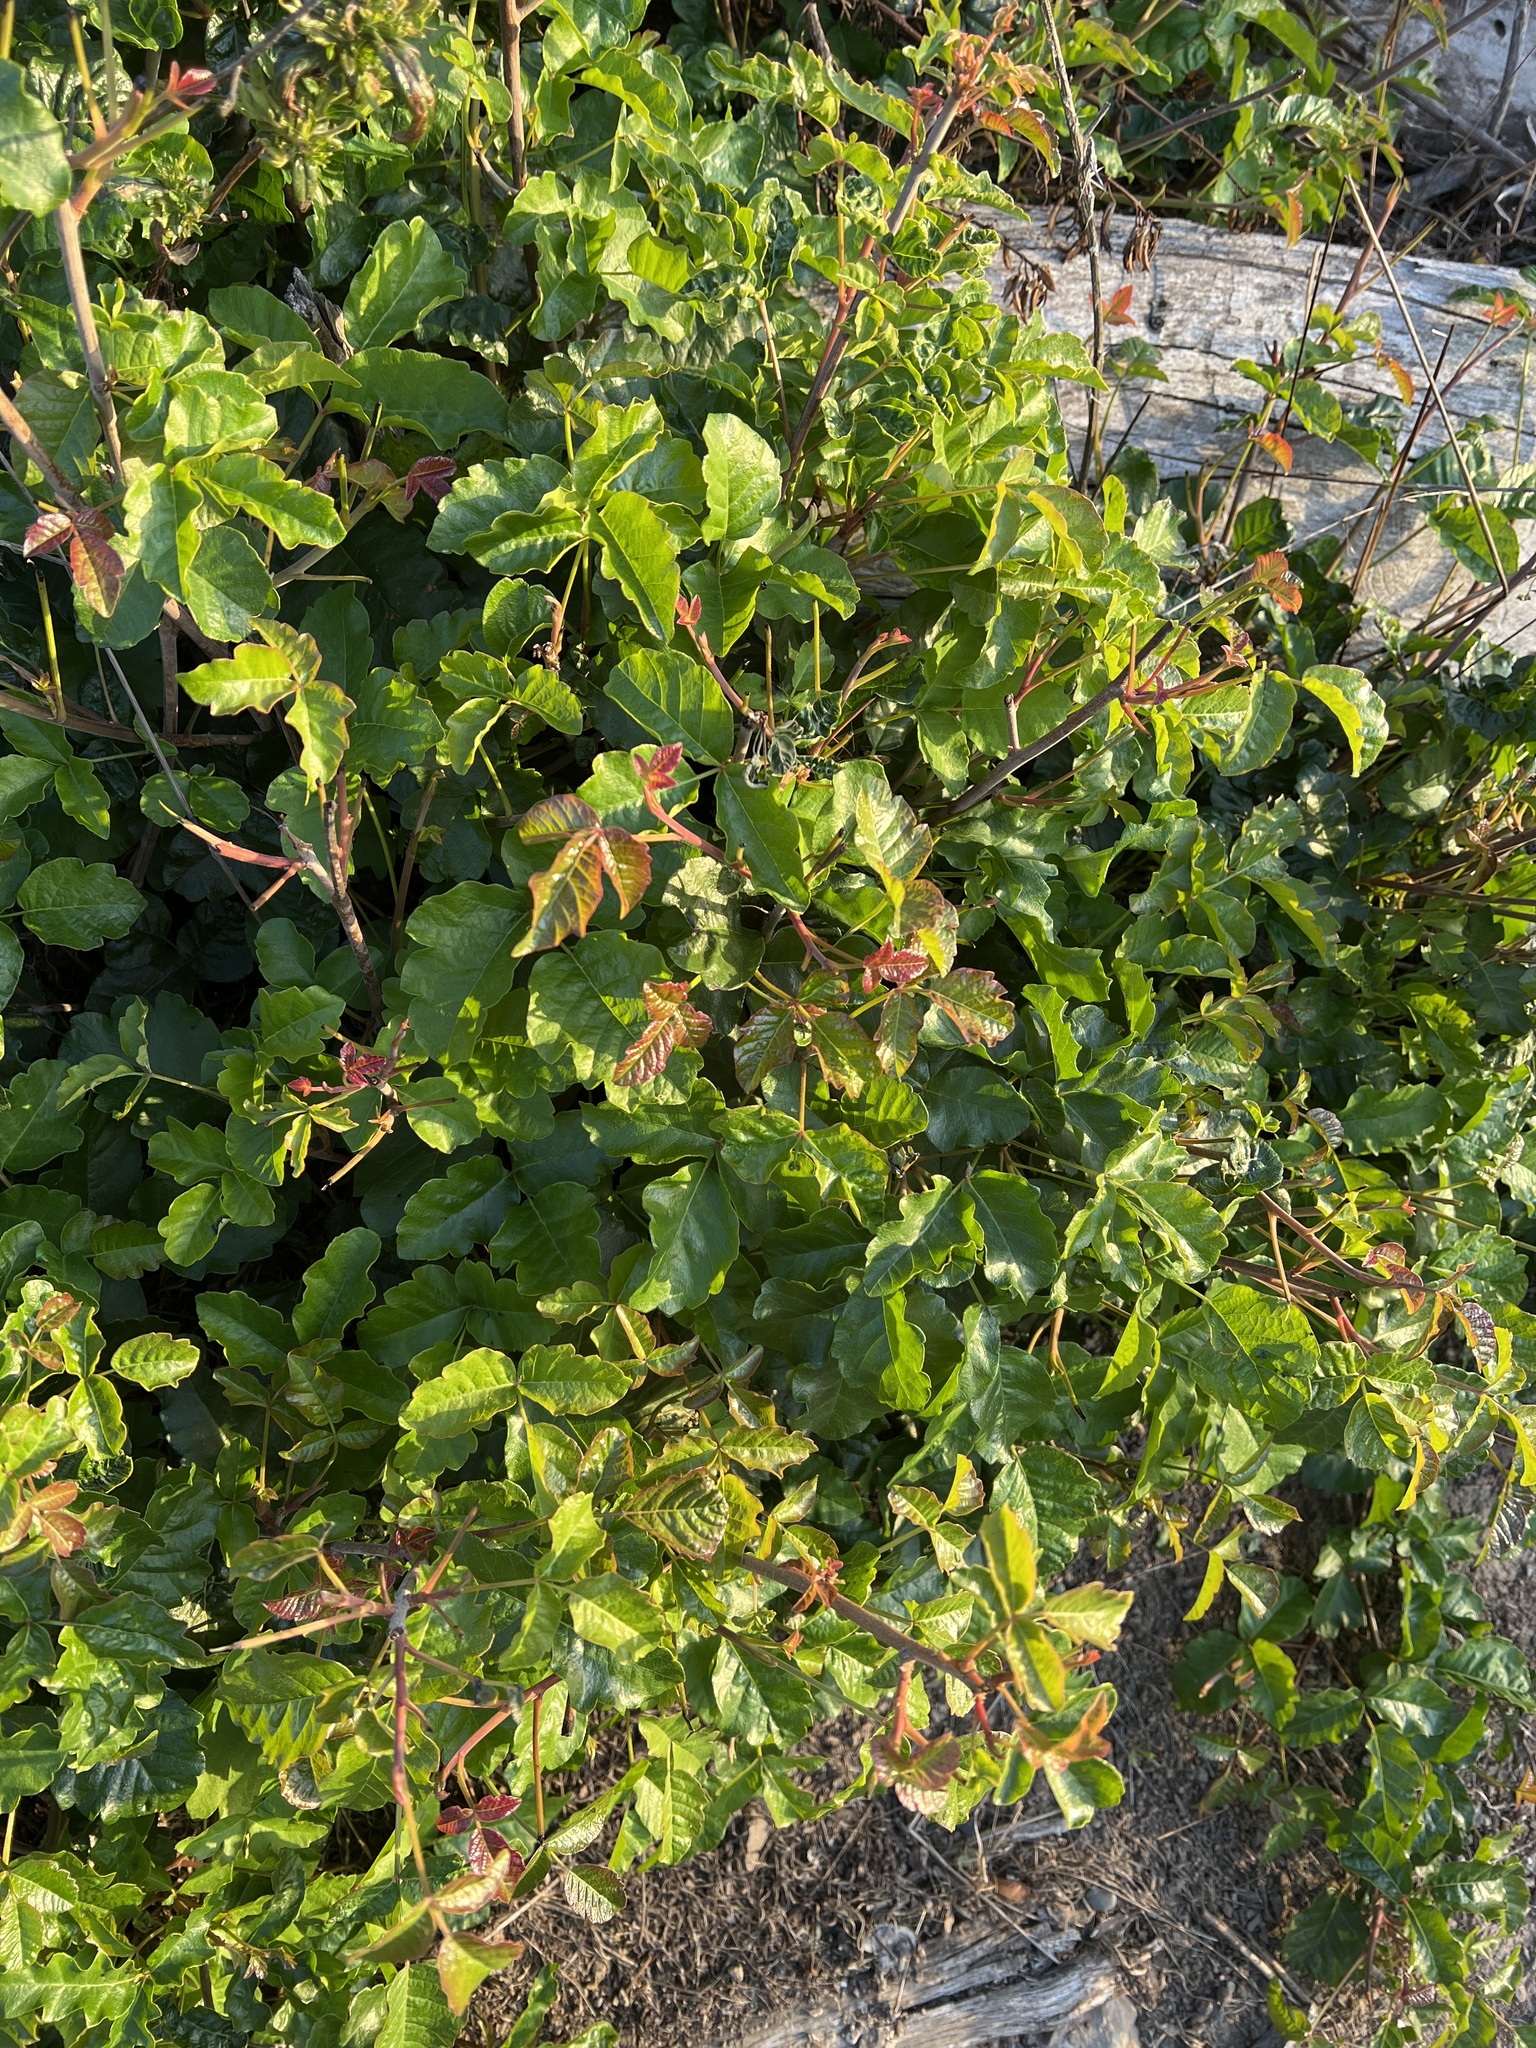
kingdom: Plantae
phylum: Tracheophyta
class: Magnoliopsida
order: Sapindales
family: Anacardiaceae
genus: Toxicodendron
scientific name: Toxicodendron diversilobum
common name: Pacific poison-oak
